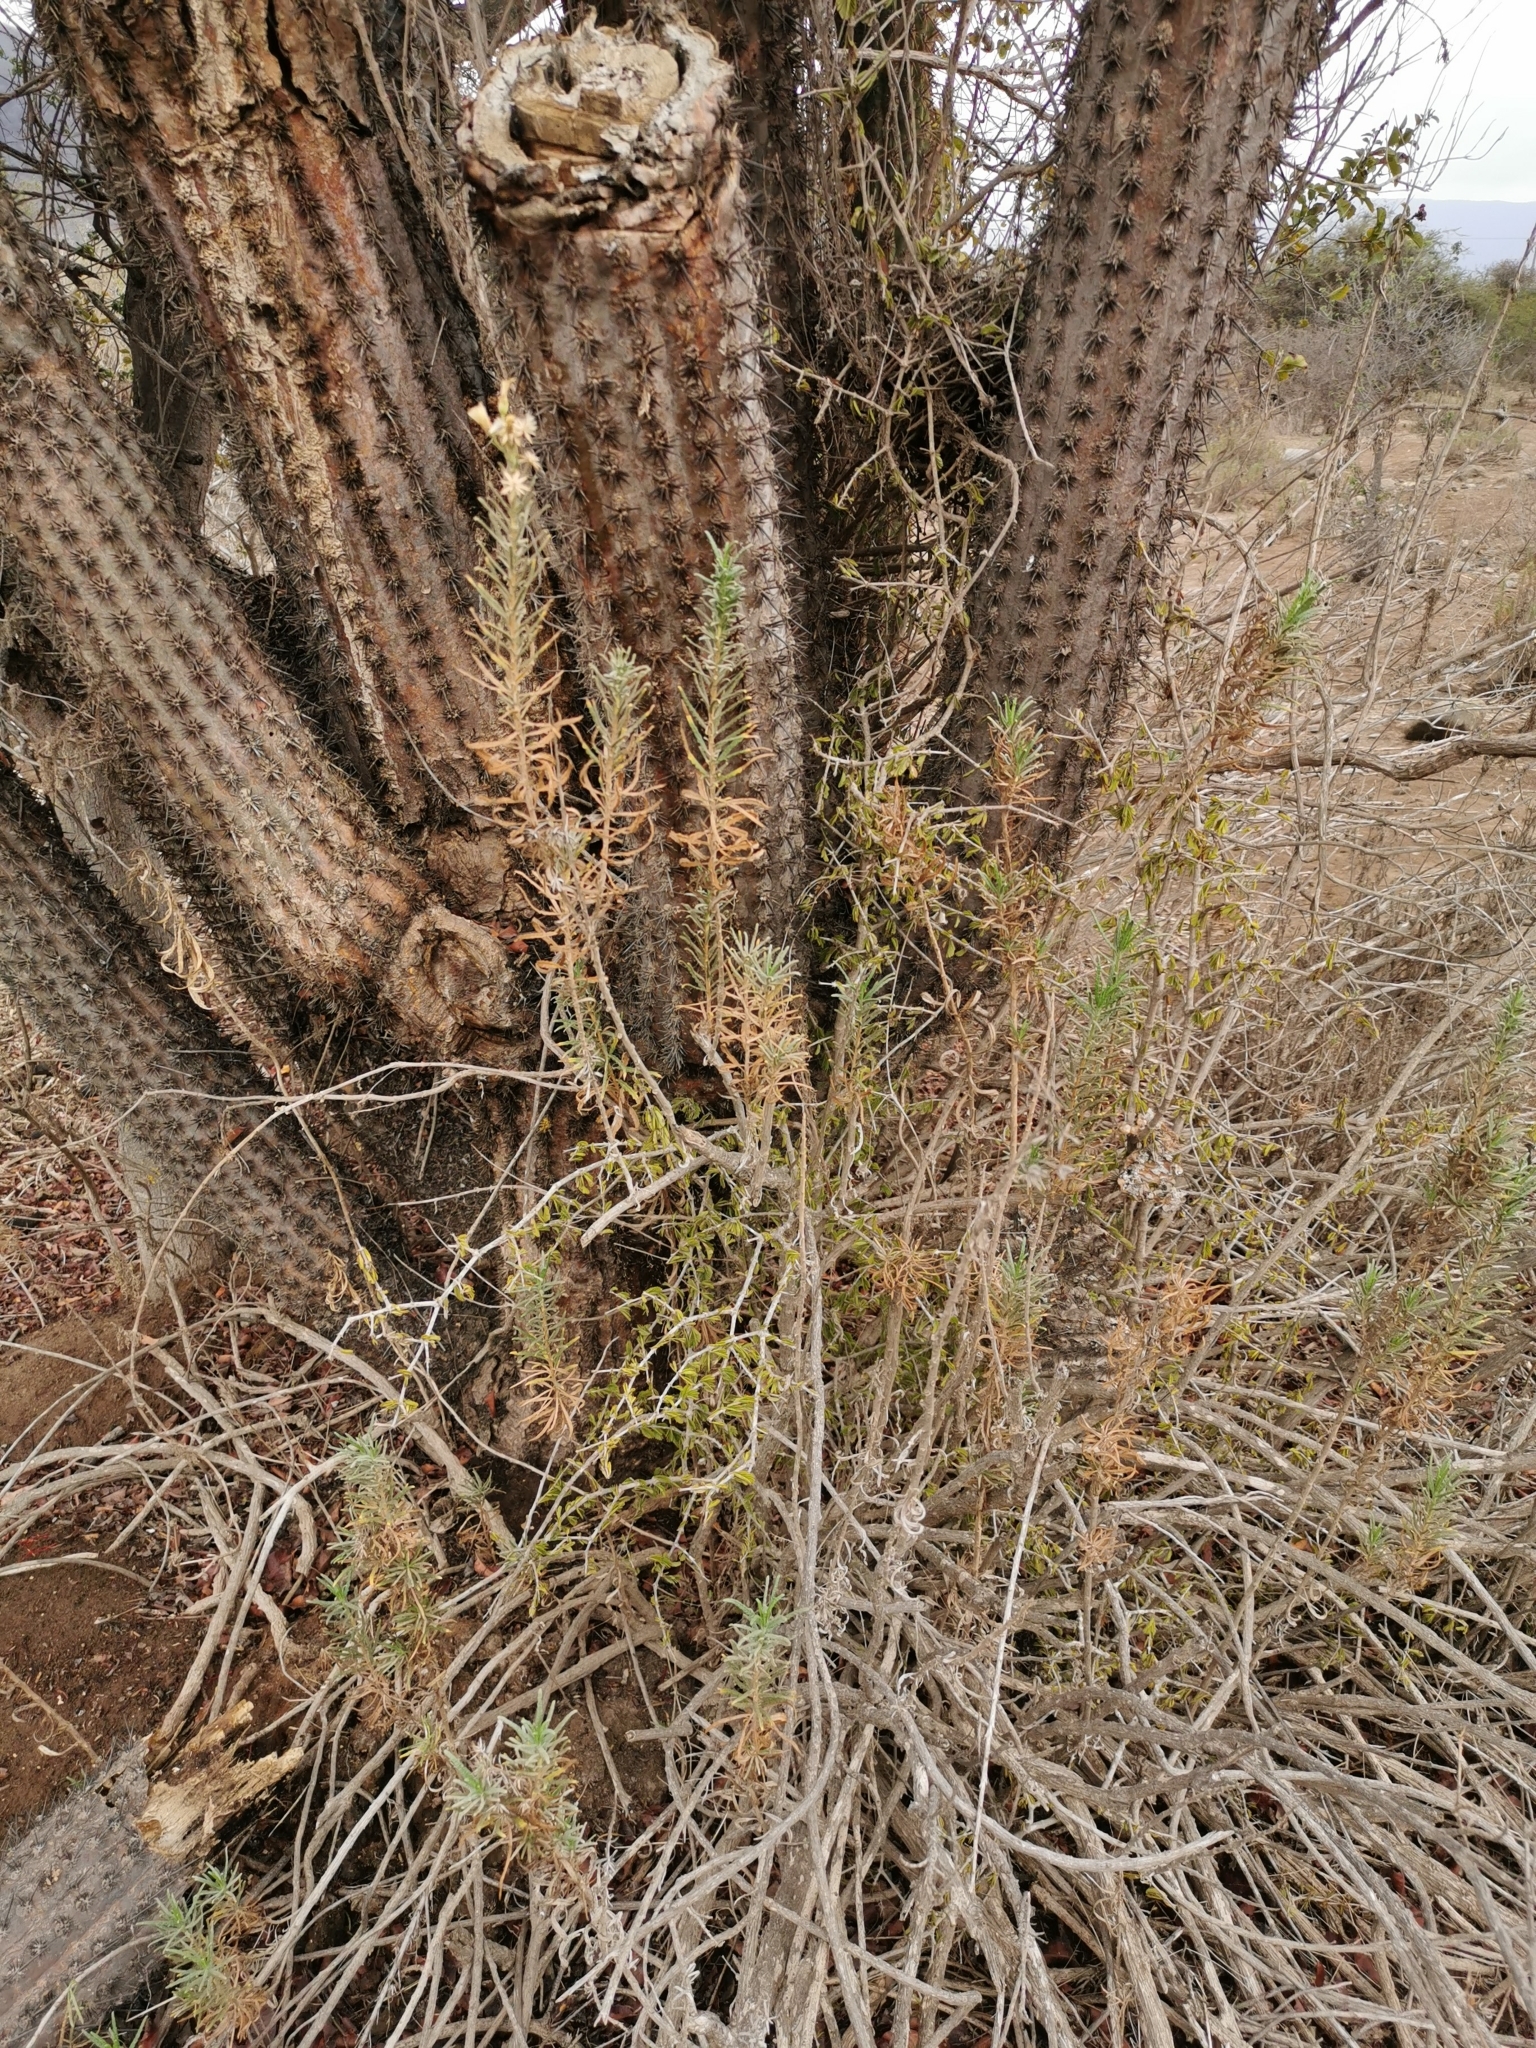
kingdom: Plantae
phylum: Tracheophyta
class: Magnoliopsida
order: Asterales
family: Asteraceae
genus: Jungia
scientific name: Jungia revoluta
